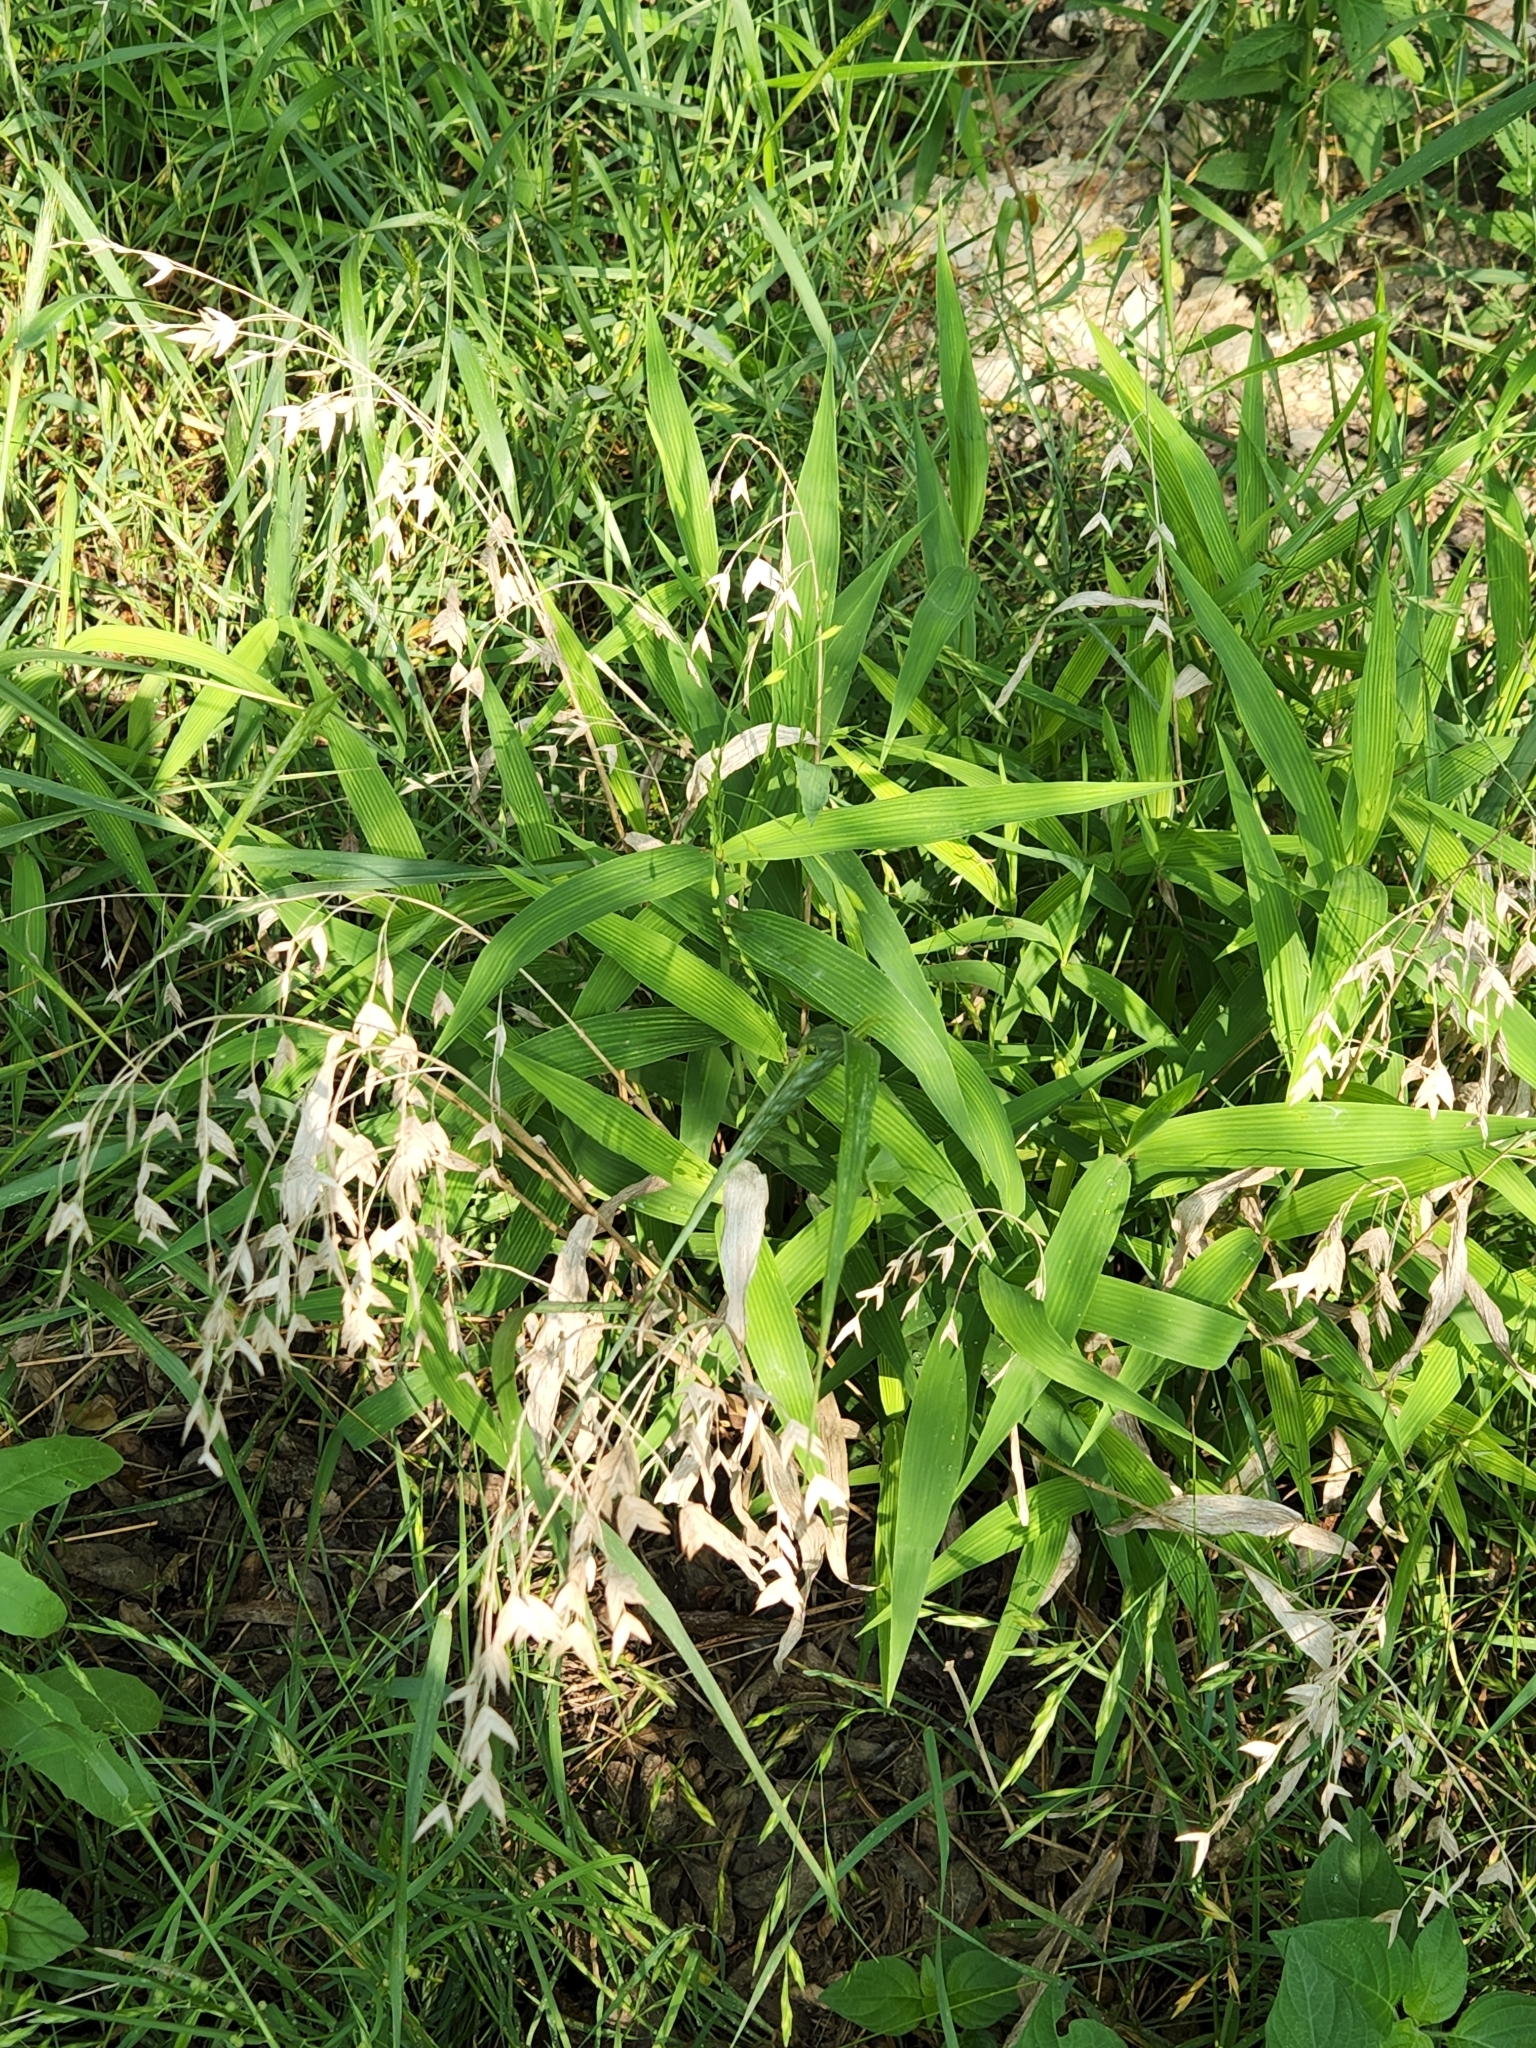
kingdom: Plantae
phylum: Tracheophyta
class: Liliopsida
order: Poales
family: Poaceae
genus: Chasmanthium
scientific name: Chasmanthium latifolium
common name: Broad-leaved chasmanthium
